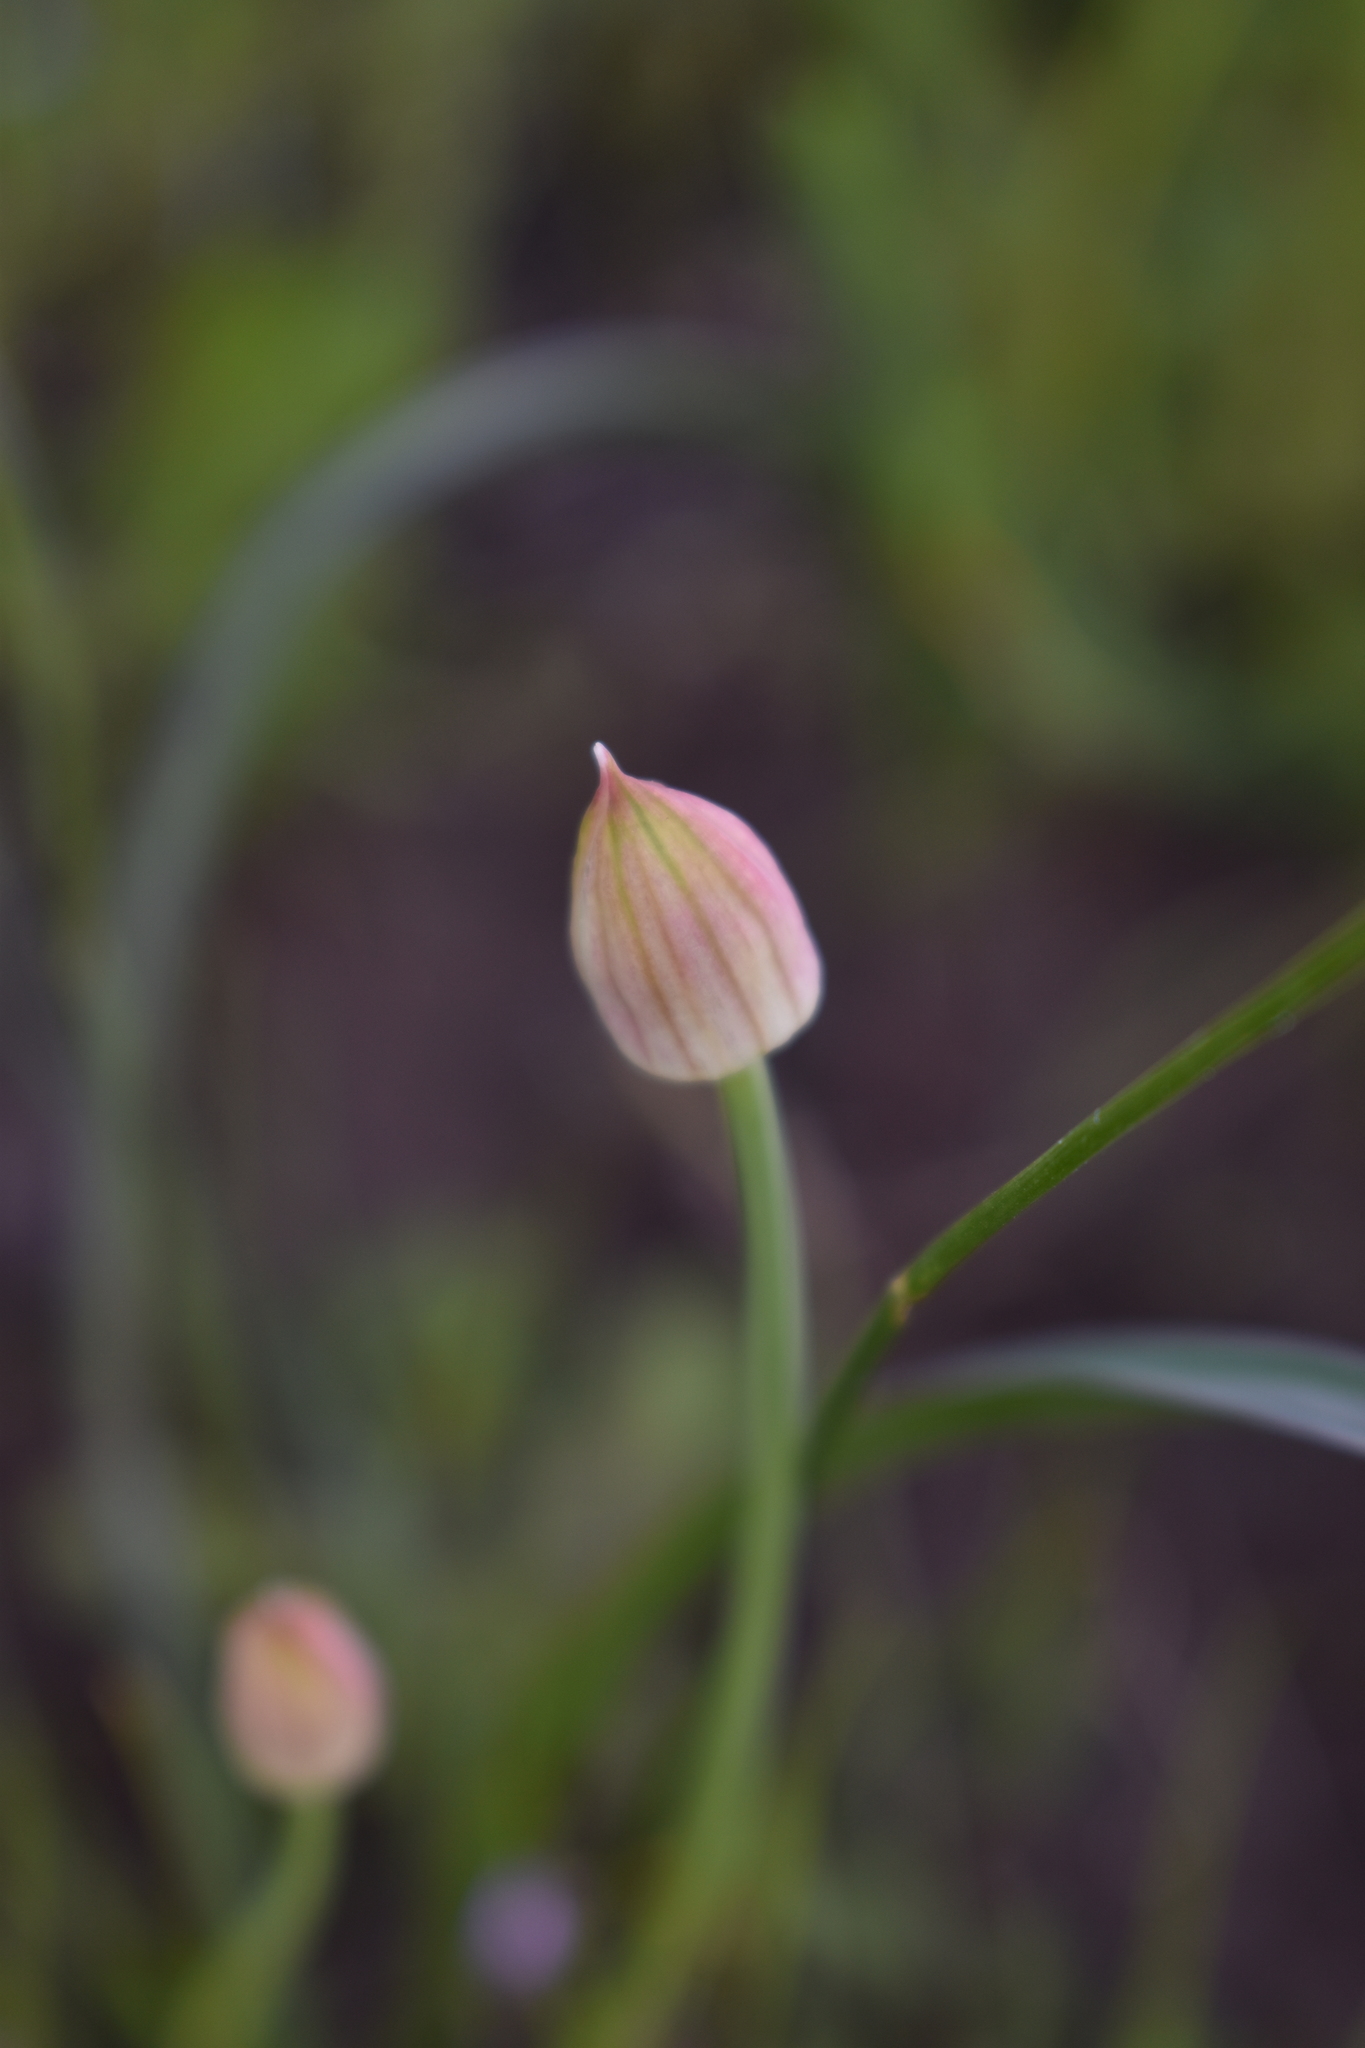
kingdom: Plantae
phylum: Tracheophyta
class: Liliopsida
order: Asparagales
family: Amaryllidaceae
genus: Allium
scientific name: Allium amplectens
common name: Narrow-leaved onion
